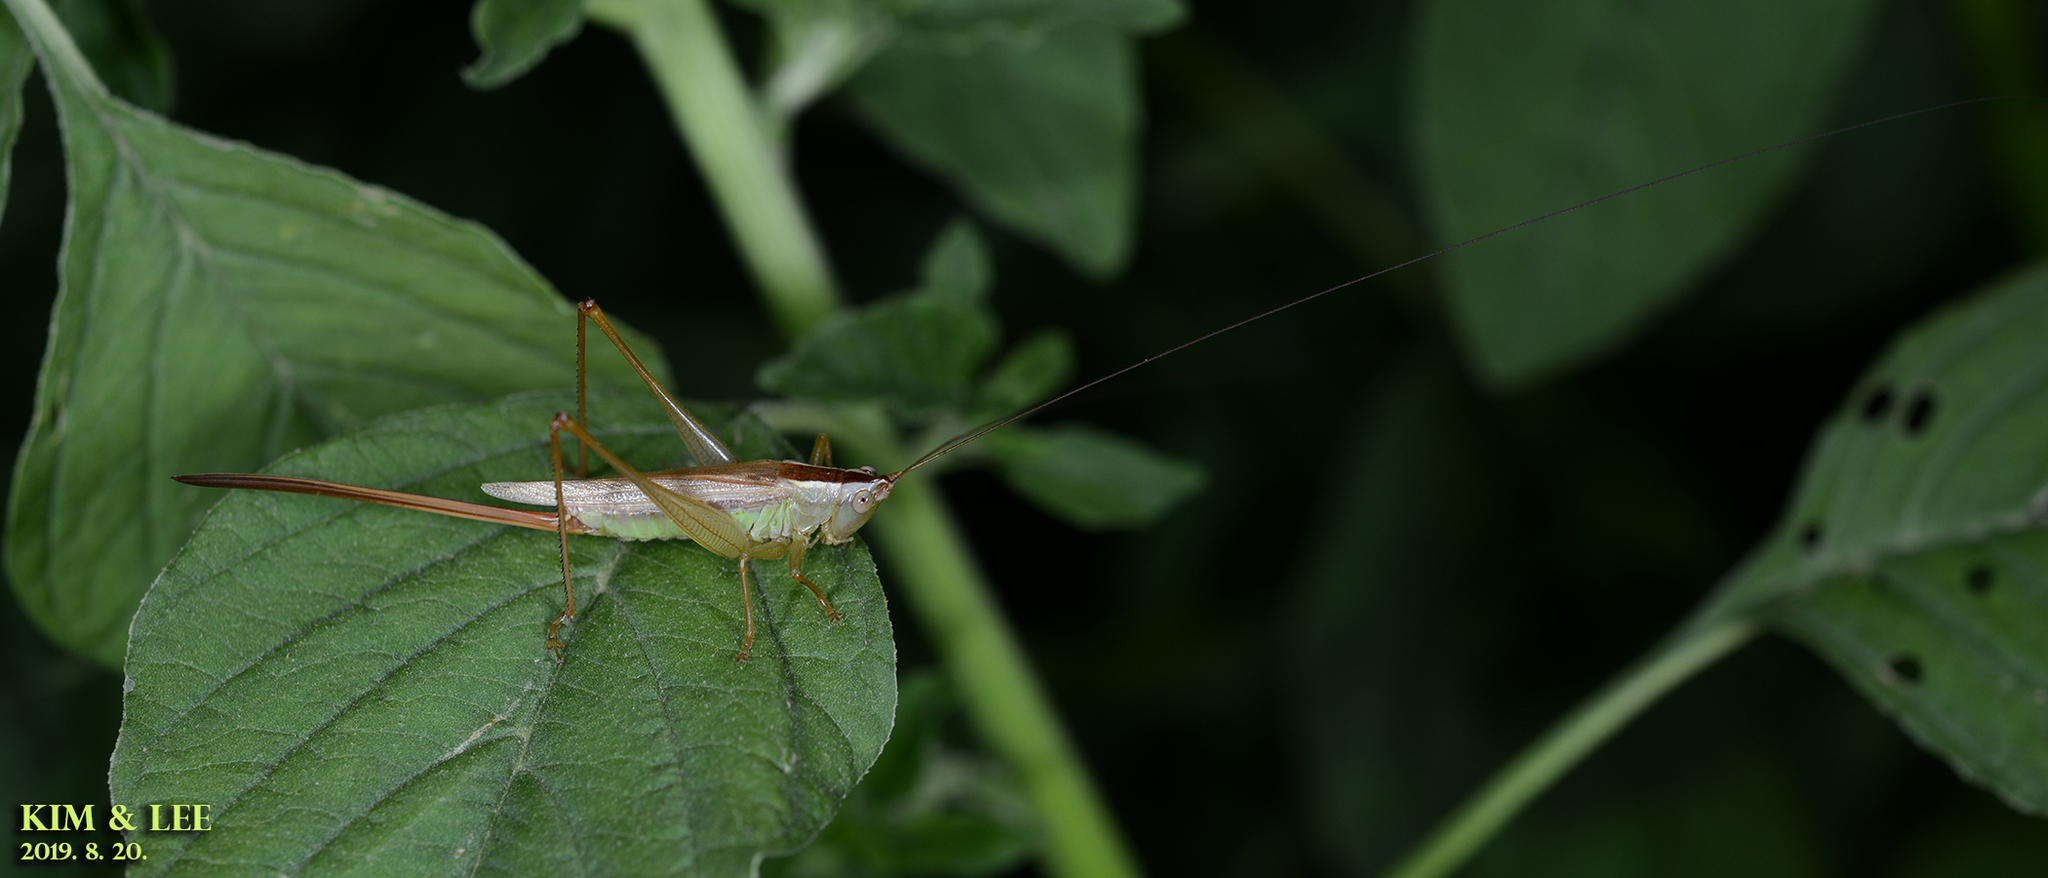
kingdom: Animalia
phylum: Arthropoda
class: Insecta
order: Orthoptera
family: Tettigoniidae
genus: Conocephalus
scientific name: Conocephalus exemptus
